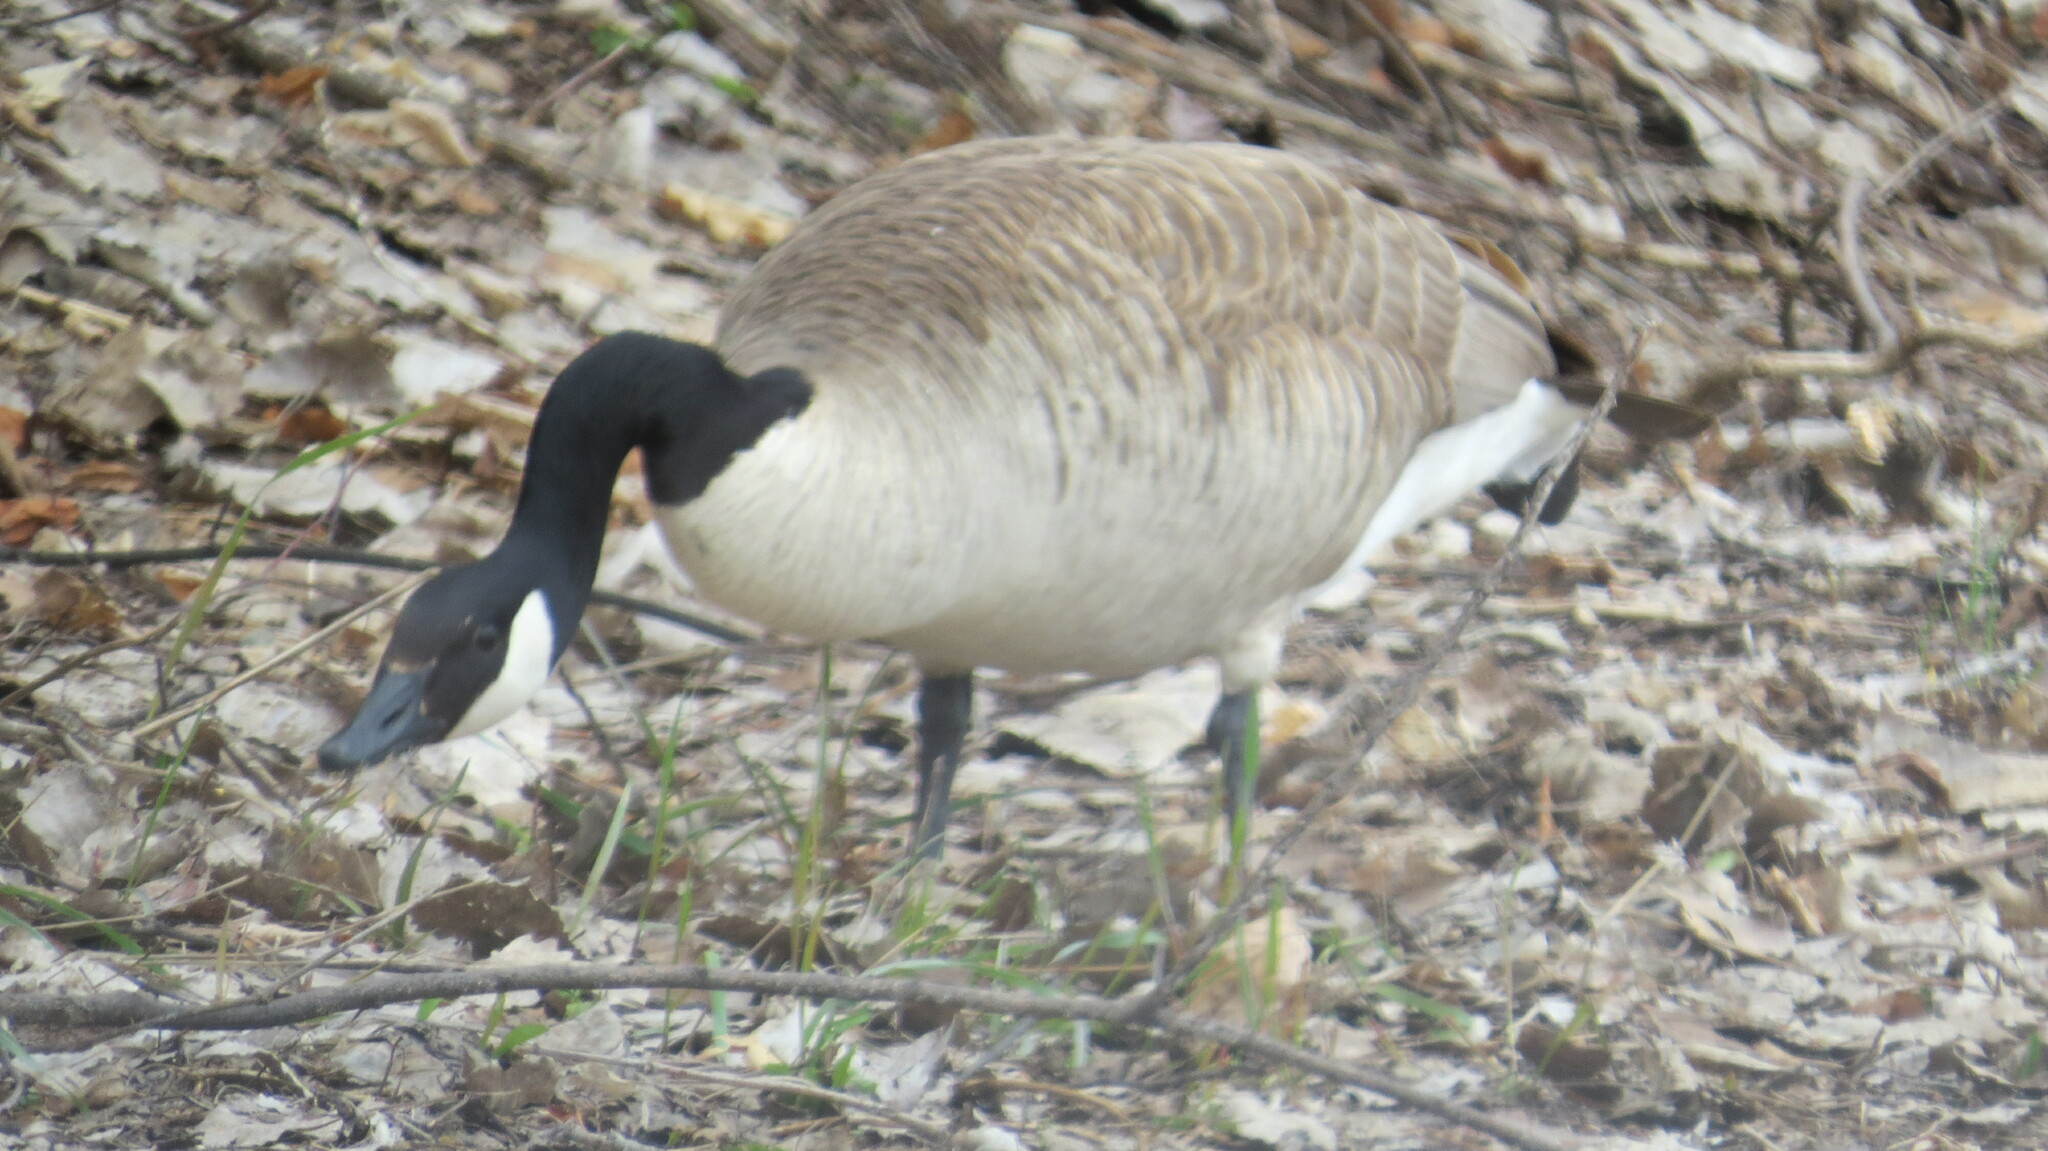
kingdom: Animalia
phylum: Chordata
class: Aves
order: Anseriformes
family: Anatidae
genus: Branta
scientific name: Branta canadensis
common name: Canada goose
